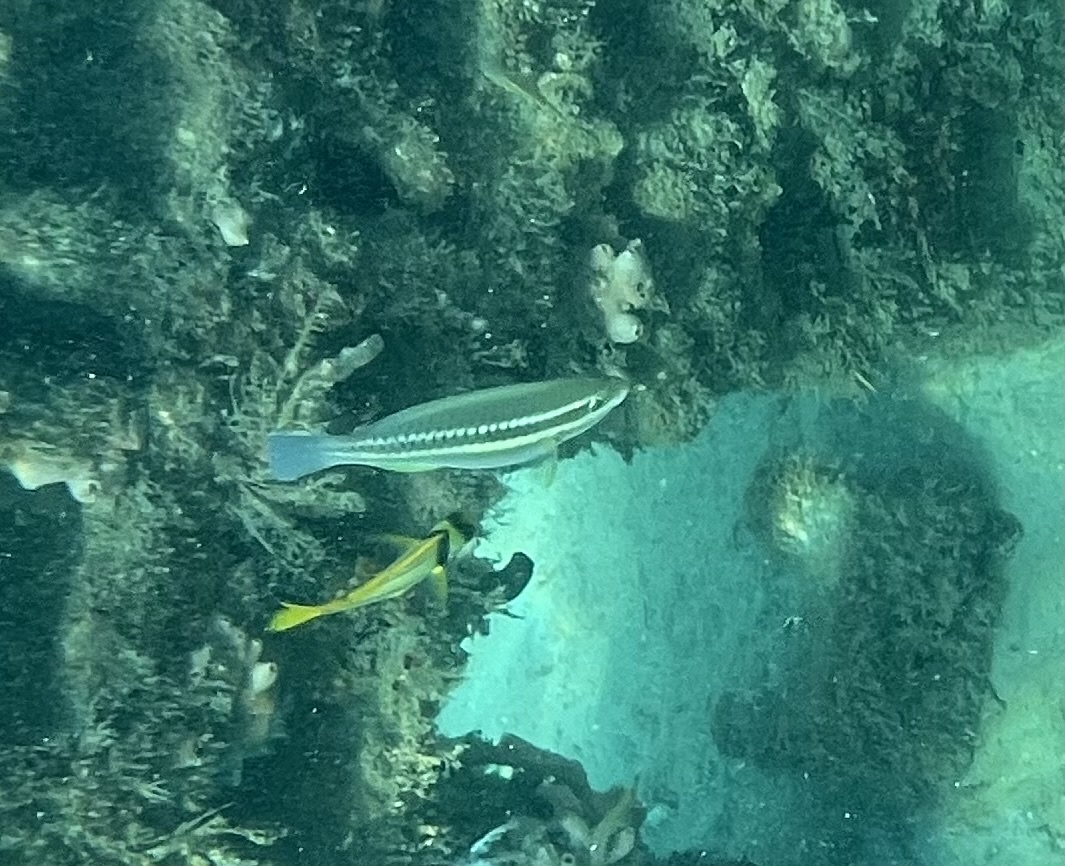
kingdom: Animalia
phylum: Chordata
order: Perciformes
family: Scaridae
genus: Scarus
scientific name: Scarus iseri
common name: Striped parrotfish
